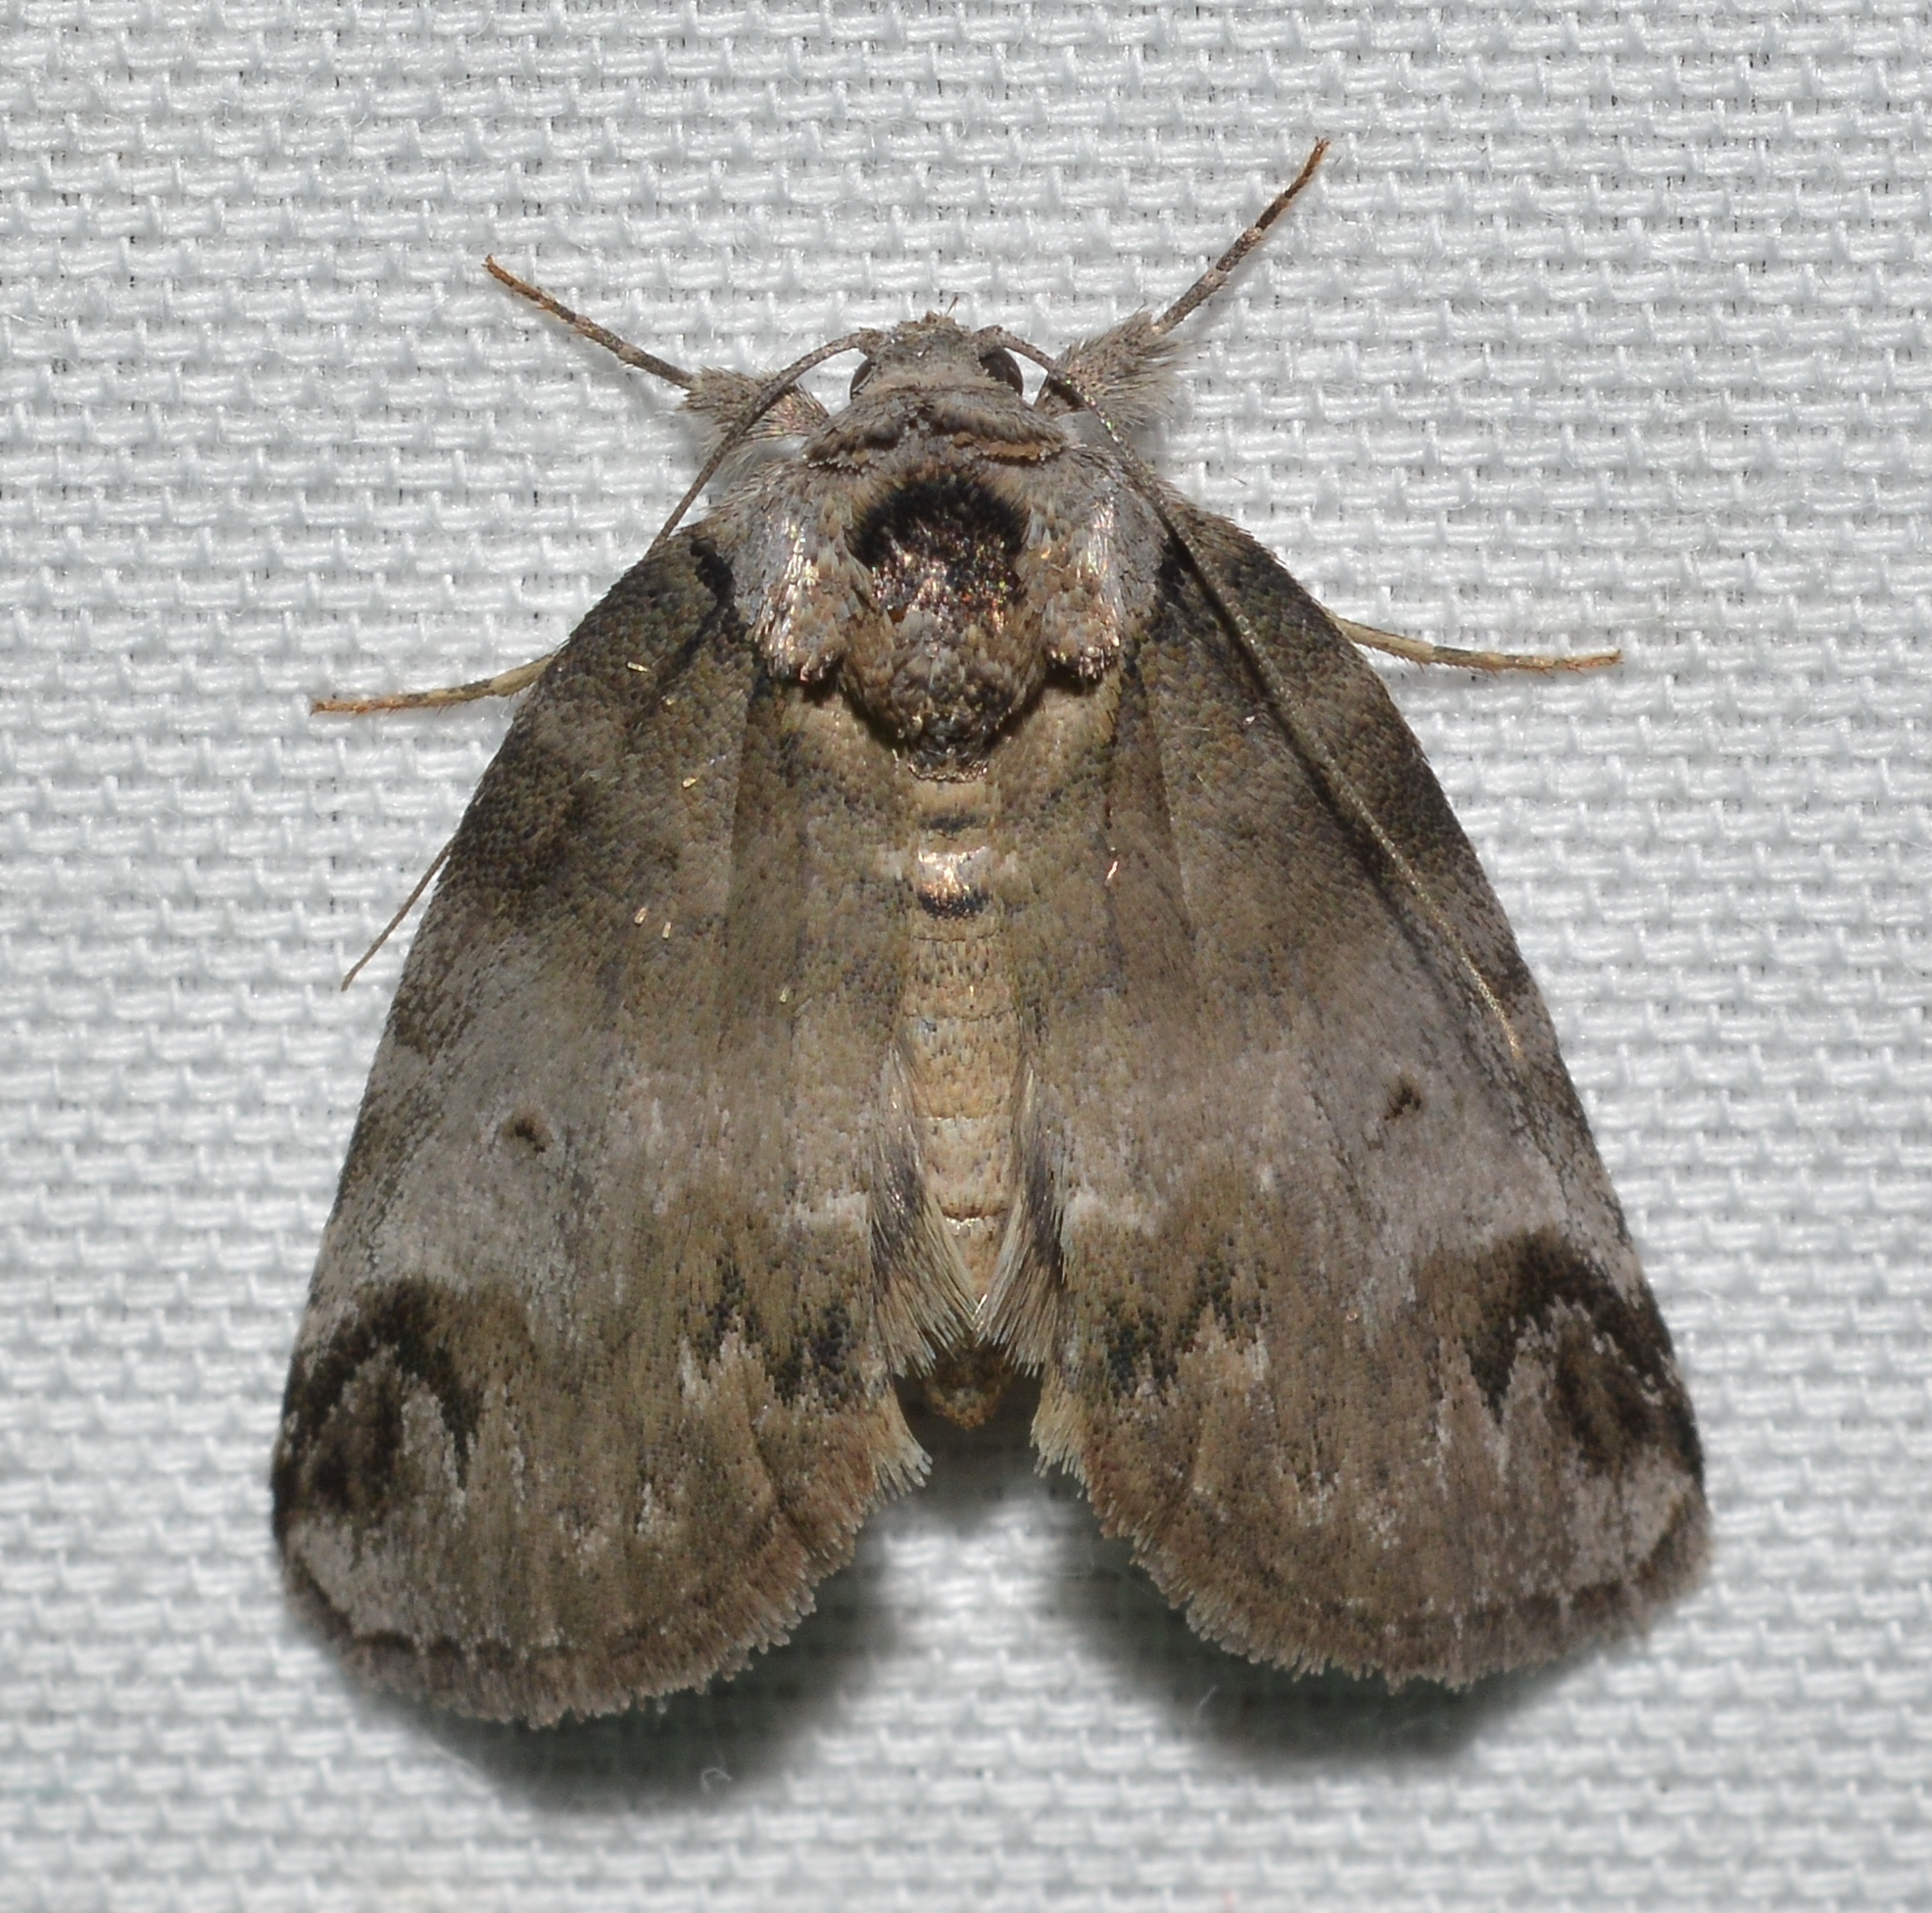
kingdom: Animalia
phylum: Arthropoda
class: Insecta
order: Lepidoptera
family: Nolidae
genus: Baileya
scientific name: Baileya dormitans
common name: Sleeping baileya moth
